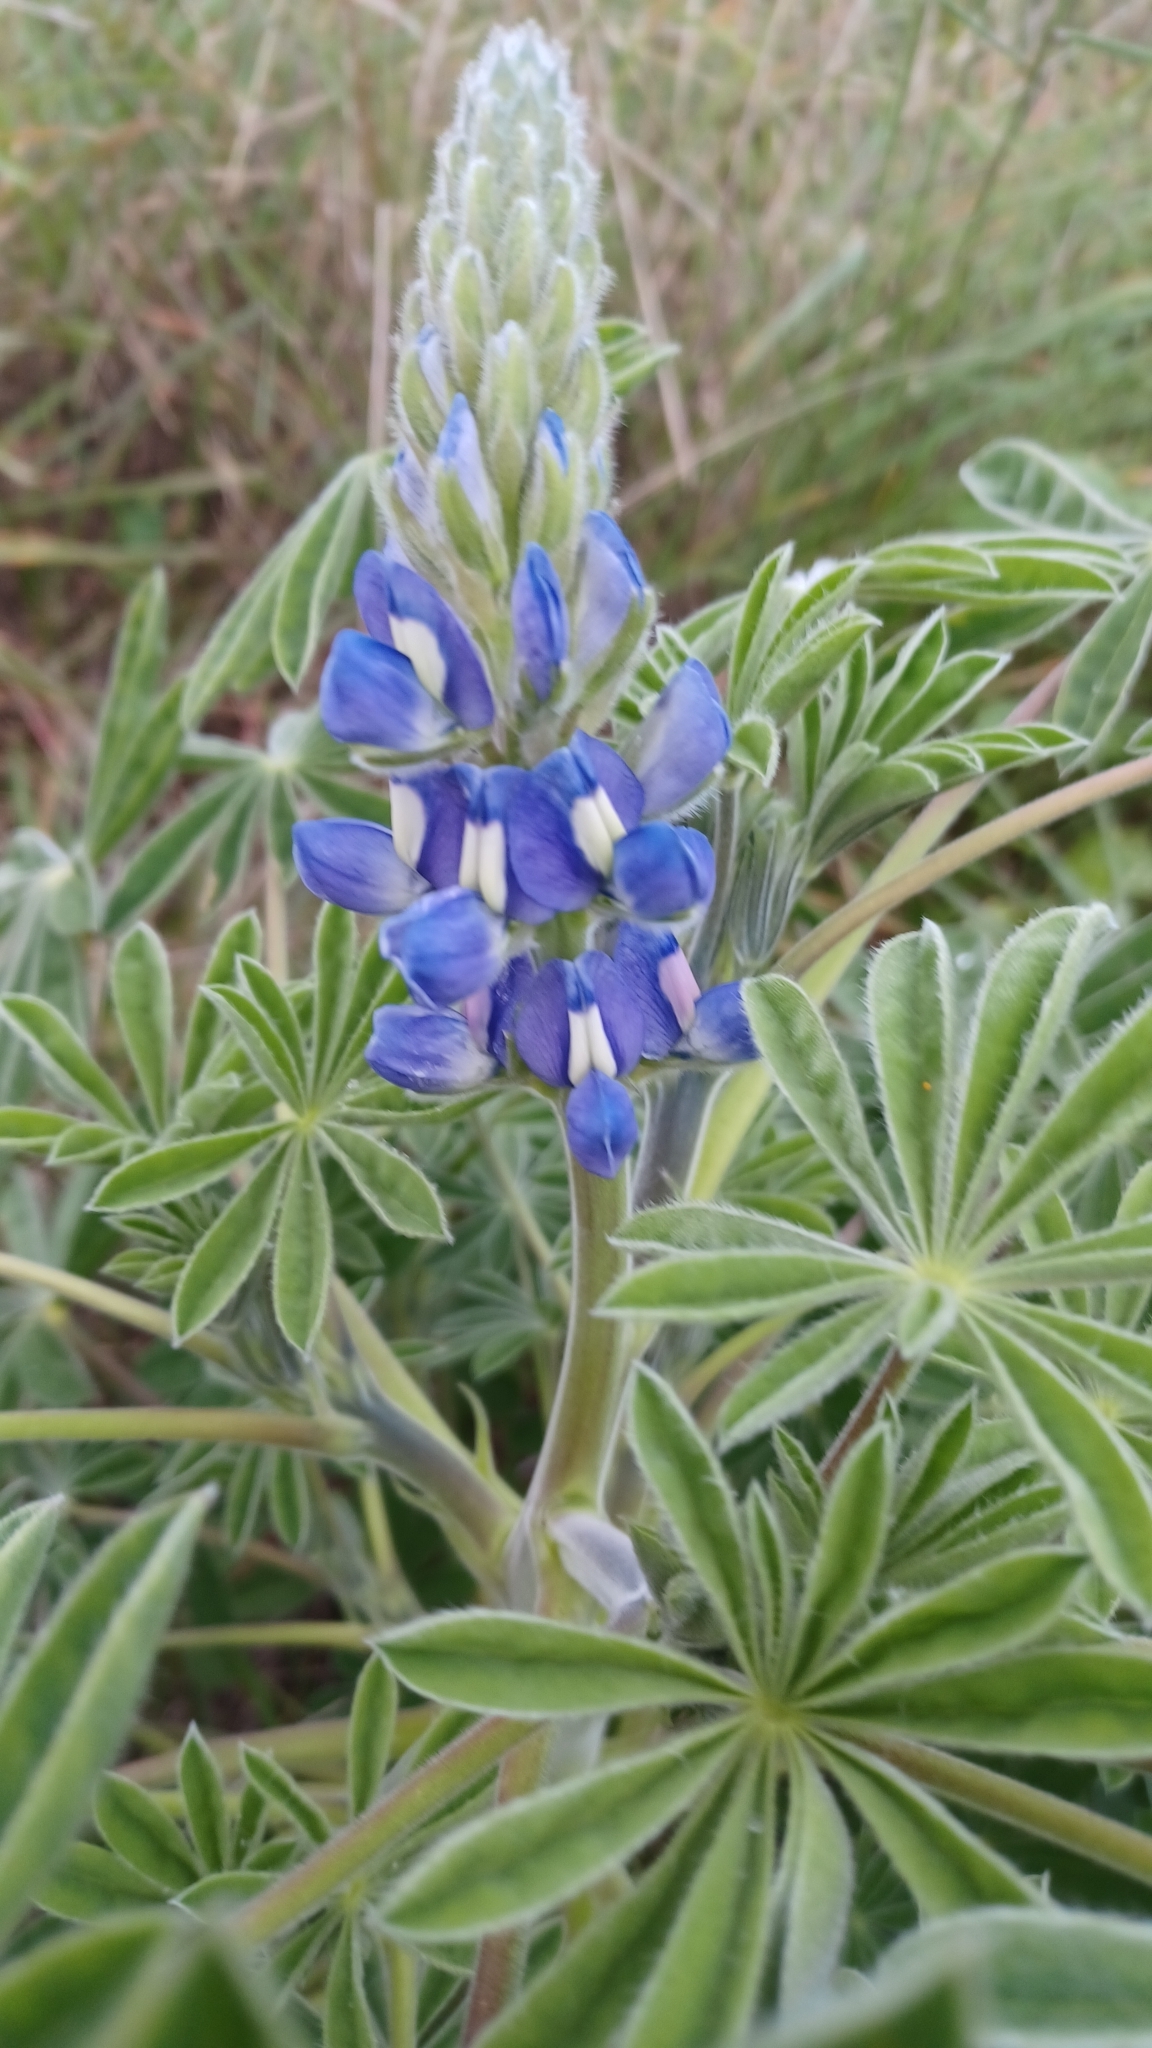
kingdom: Plantae
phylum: Tracheophyta
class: Magnoliopsida
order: Fabales
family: Fabaceae
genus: Lupinus
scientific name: Lupinus cosentinii
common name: Hairy blue lupin
